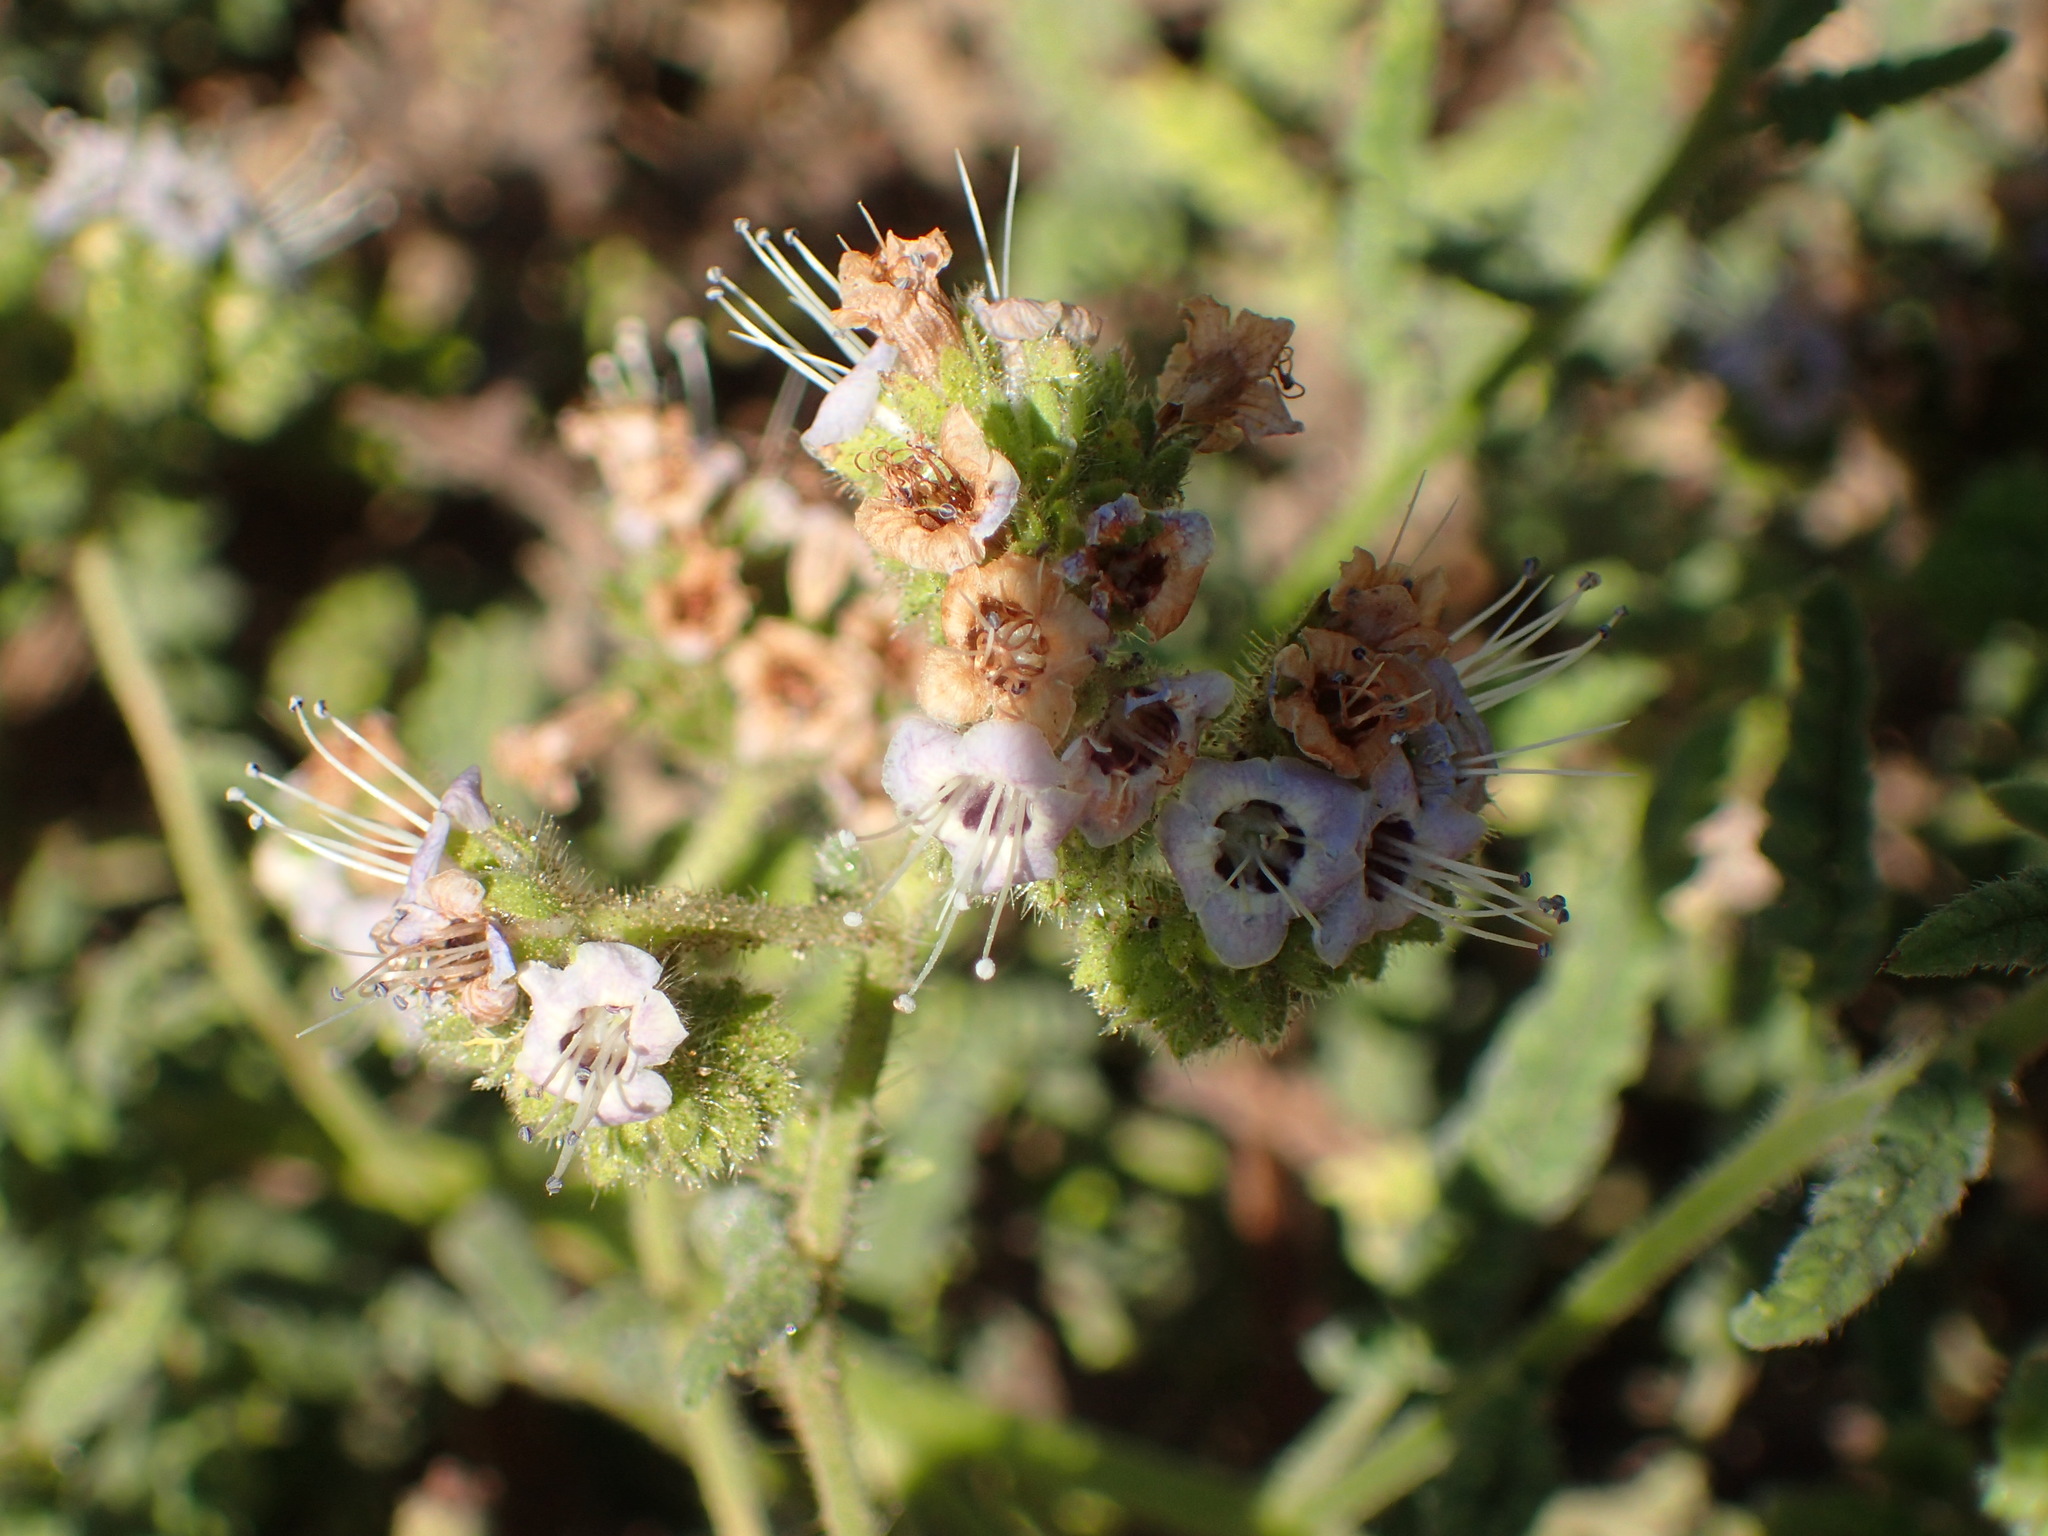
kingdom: Plantae
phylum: Tracheophyta
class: Magnoliopsida
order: Boraginales
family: Hydrophyllaceae
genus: Phacelia
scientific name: Phacelia ramosissima
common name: Branching phacelia
